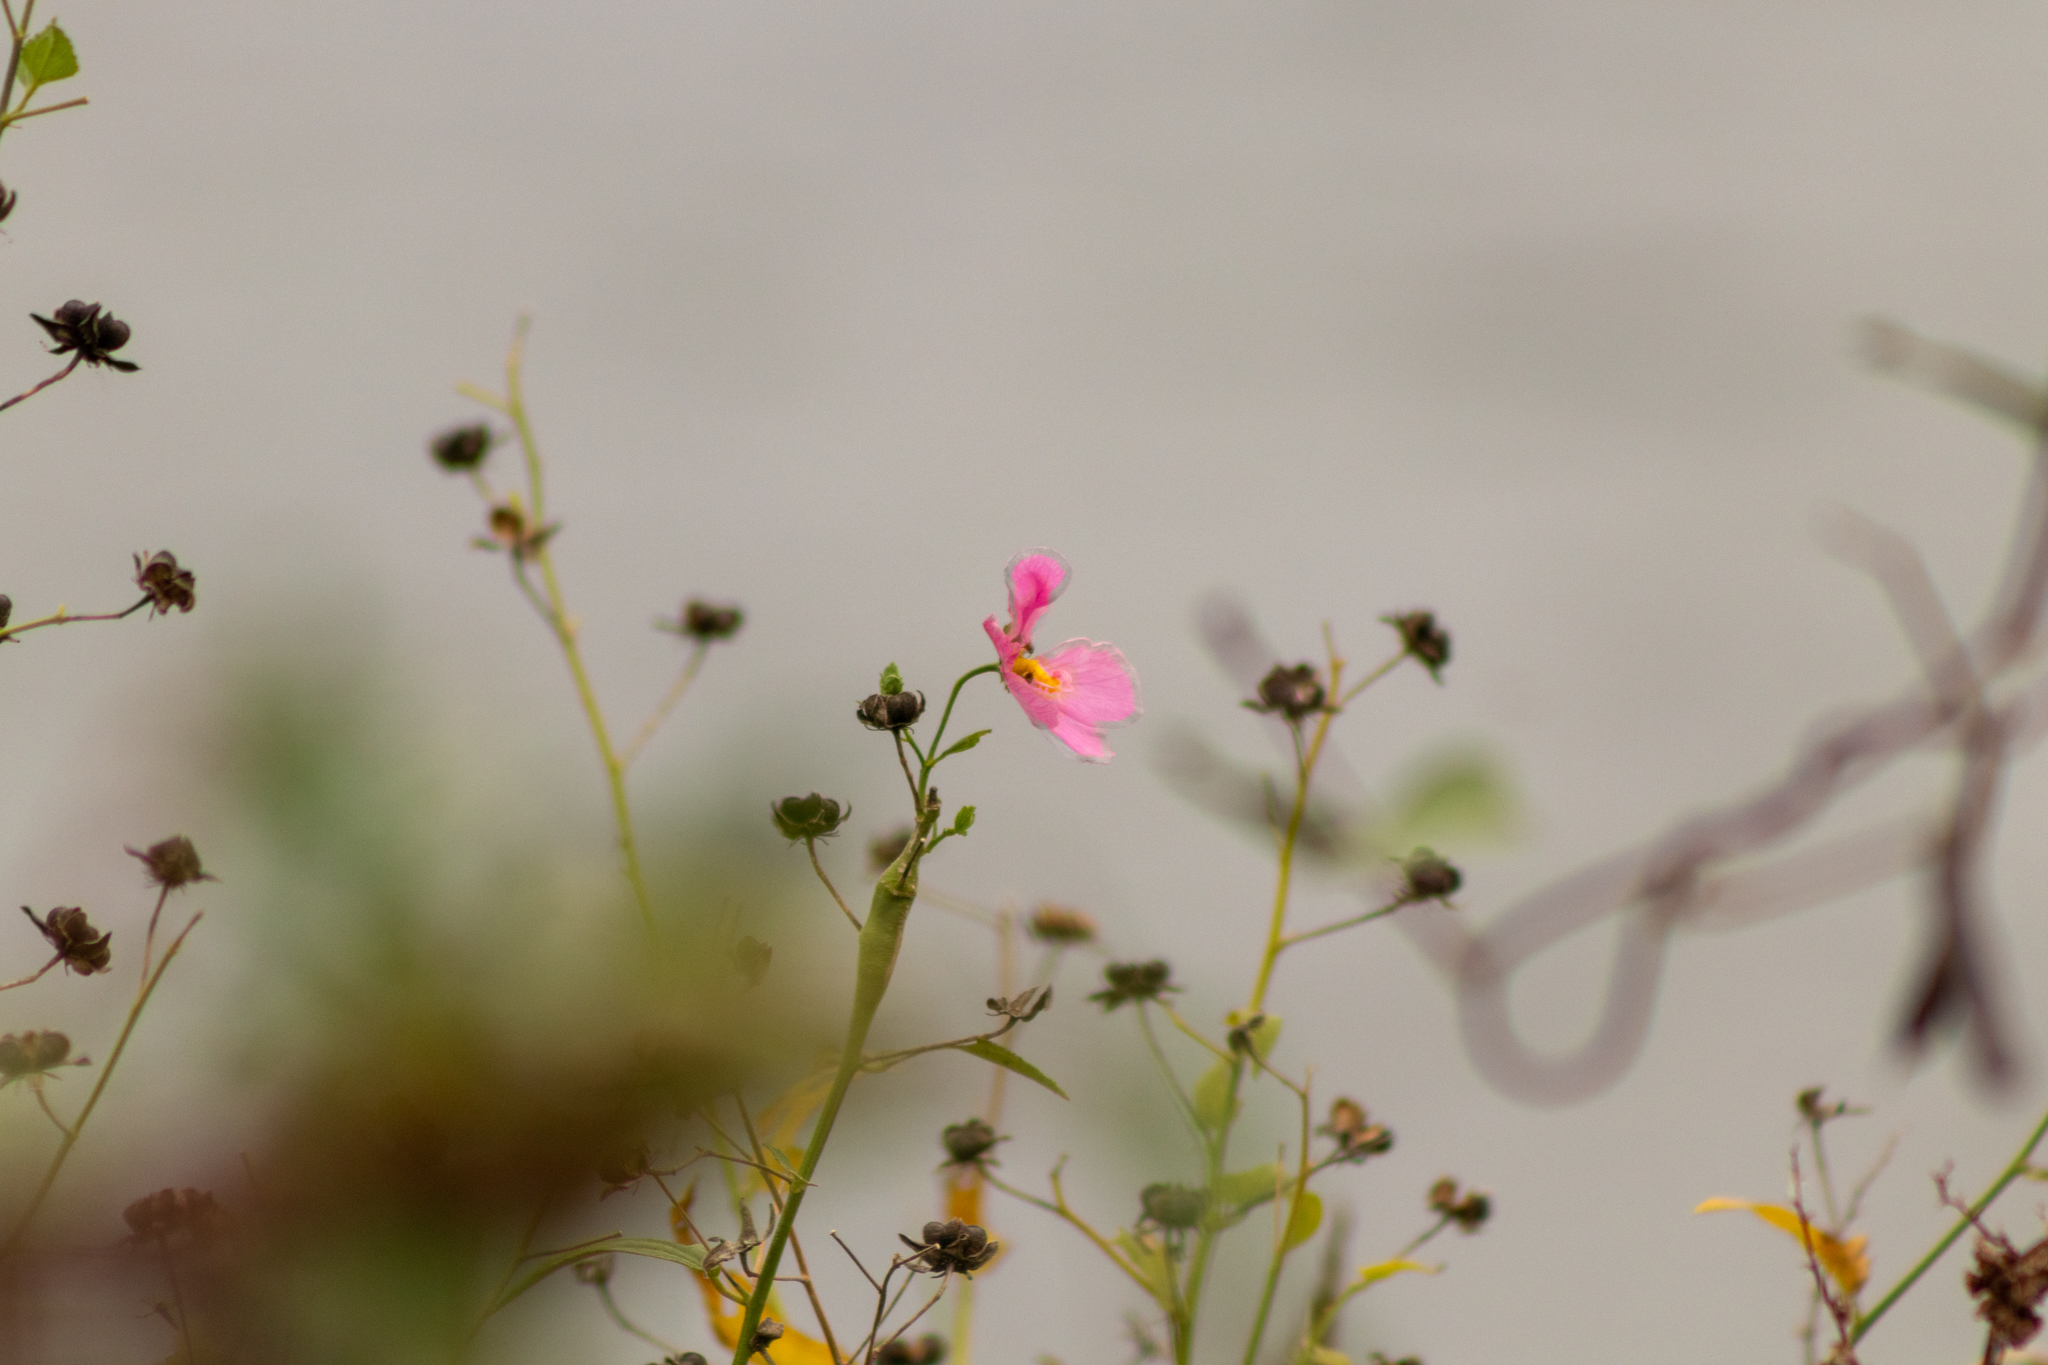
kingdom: Plantae
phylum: Tracheophyta
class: Magnoliopsida
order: Malvales
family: Malvaceae
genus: Kosteletzkya
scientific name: Kosteletzkya pentacarpos
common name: Virginia saltmarsh mallow
